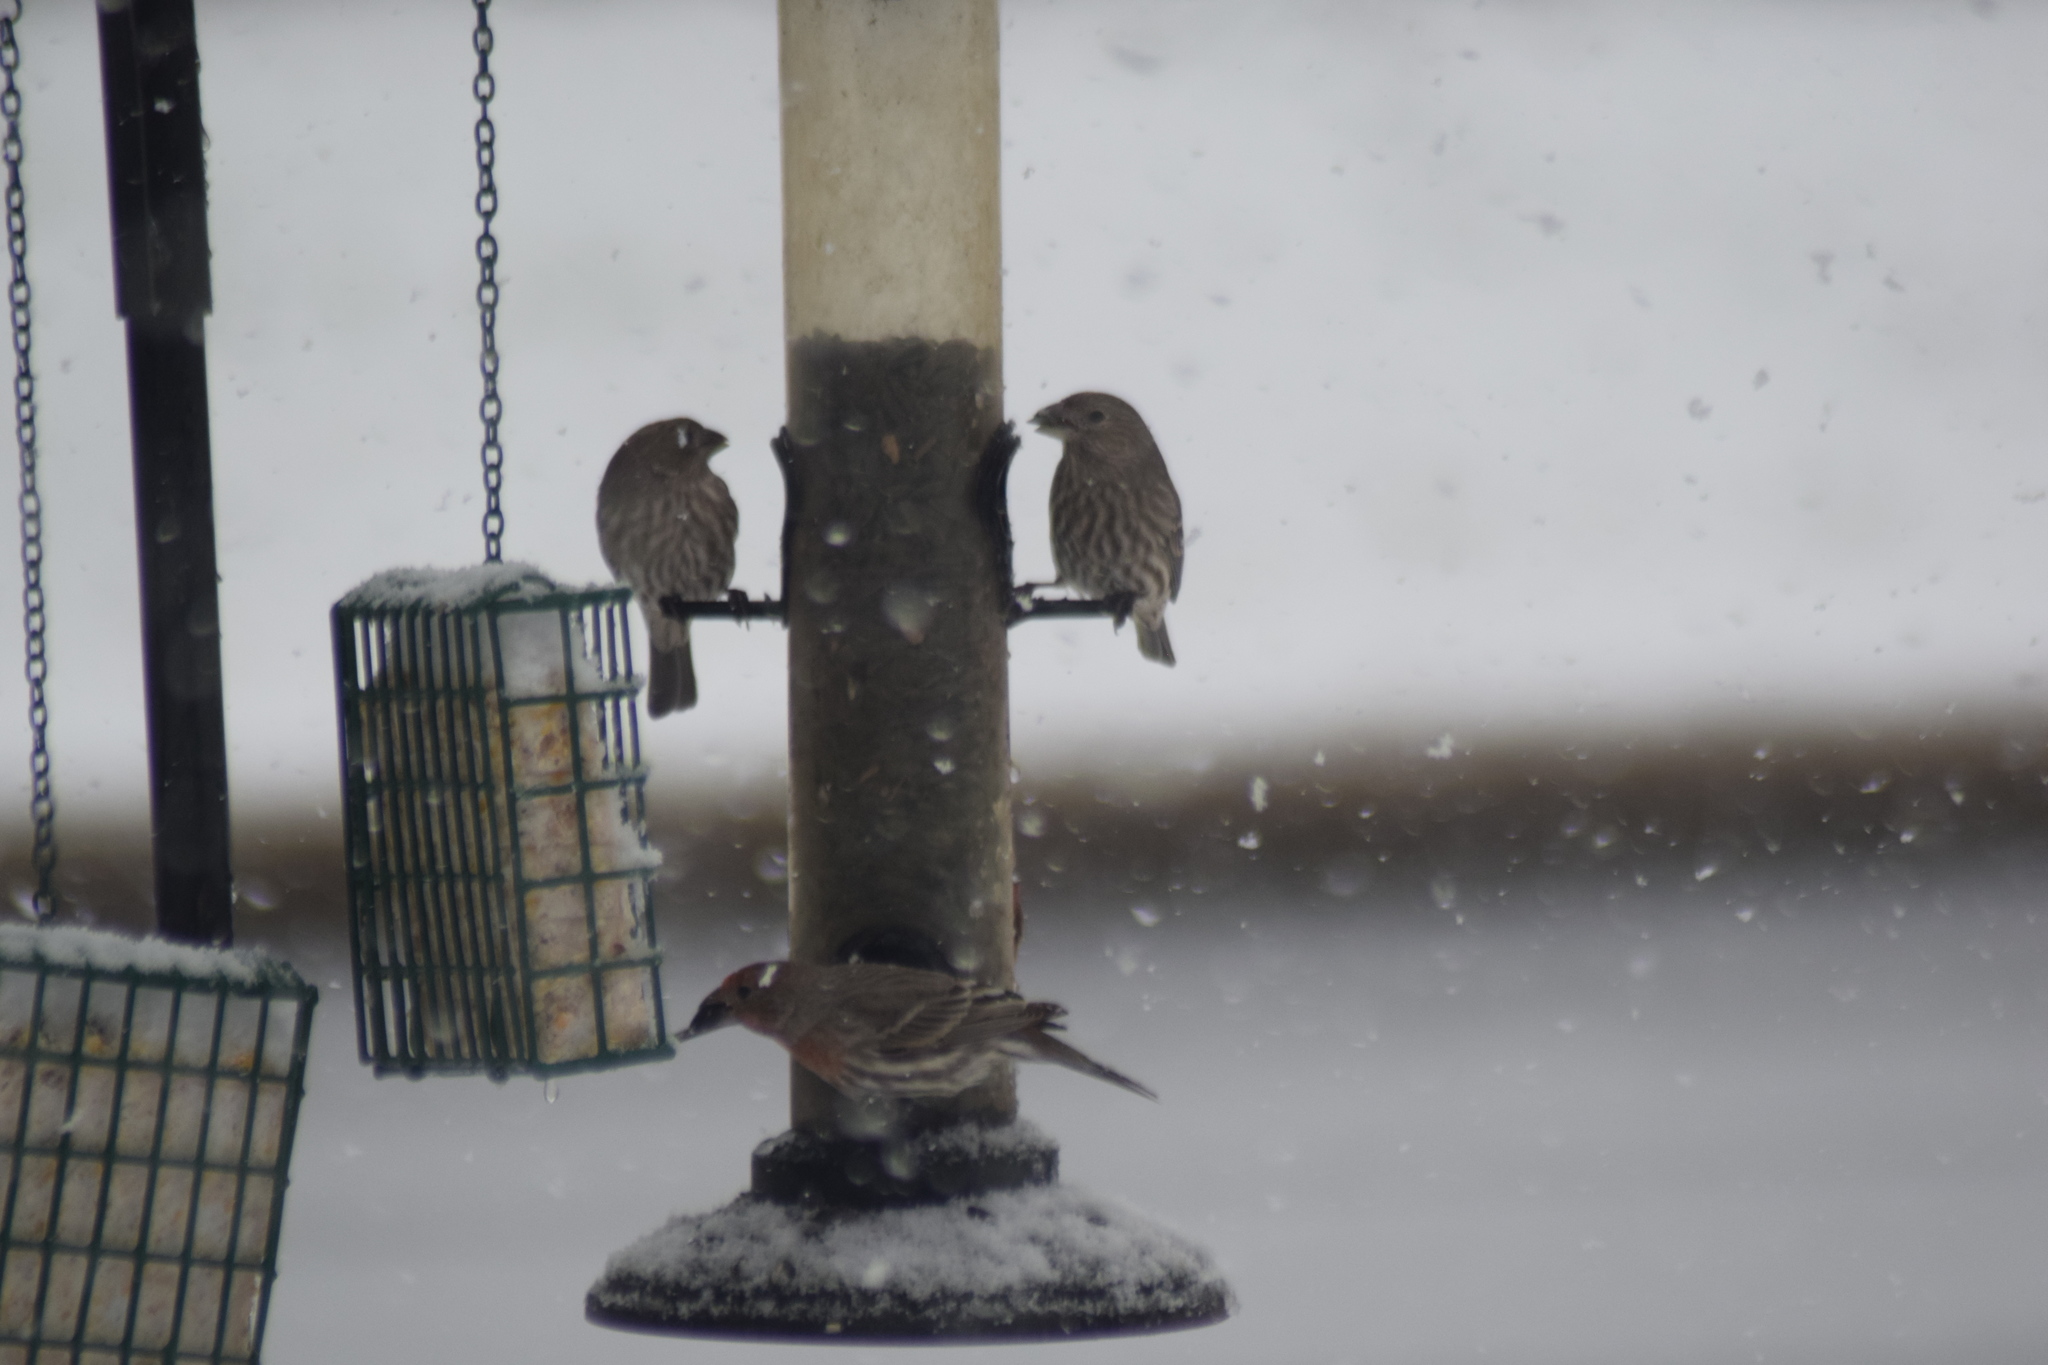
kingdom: Animalia
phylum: Chordata
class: Aves
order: Passeriformes
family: Fringillidae
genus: Haemorhous
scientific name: Haemorhous mexicanus
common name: House finch
